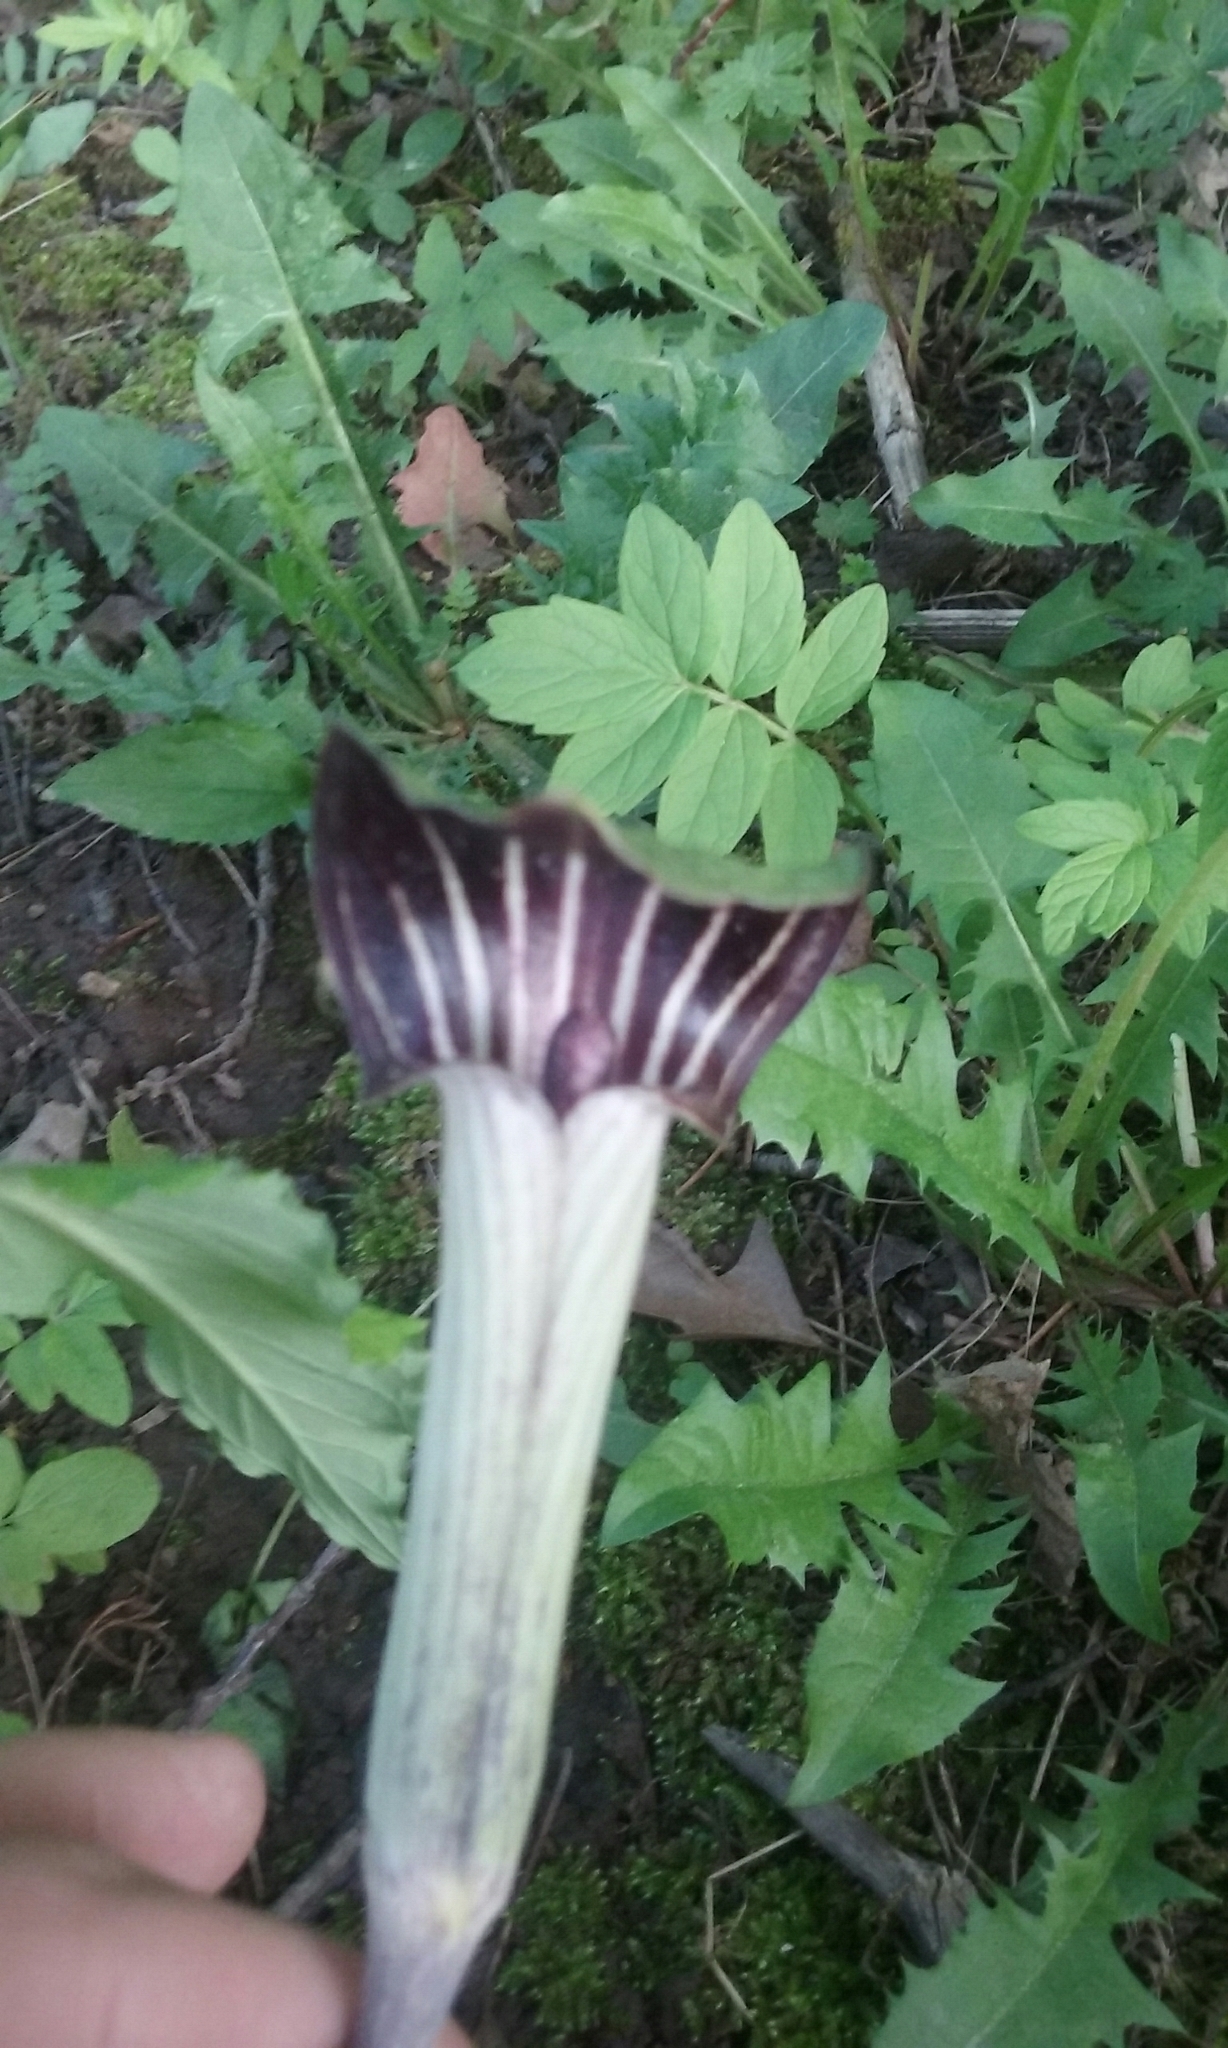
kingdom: Plantae
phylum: Tracheophyta
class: Liliopsida
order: Alismatales
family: Araceae
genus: Arisaema
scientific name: Arisaema triphyllum
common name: Jack-in-the-pulpit
